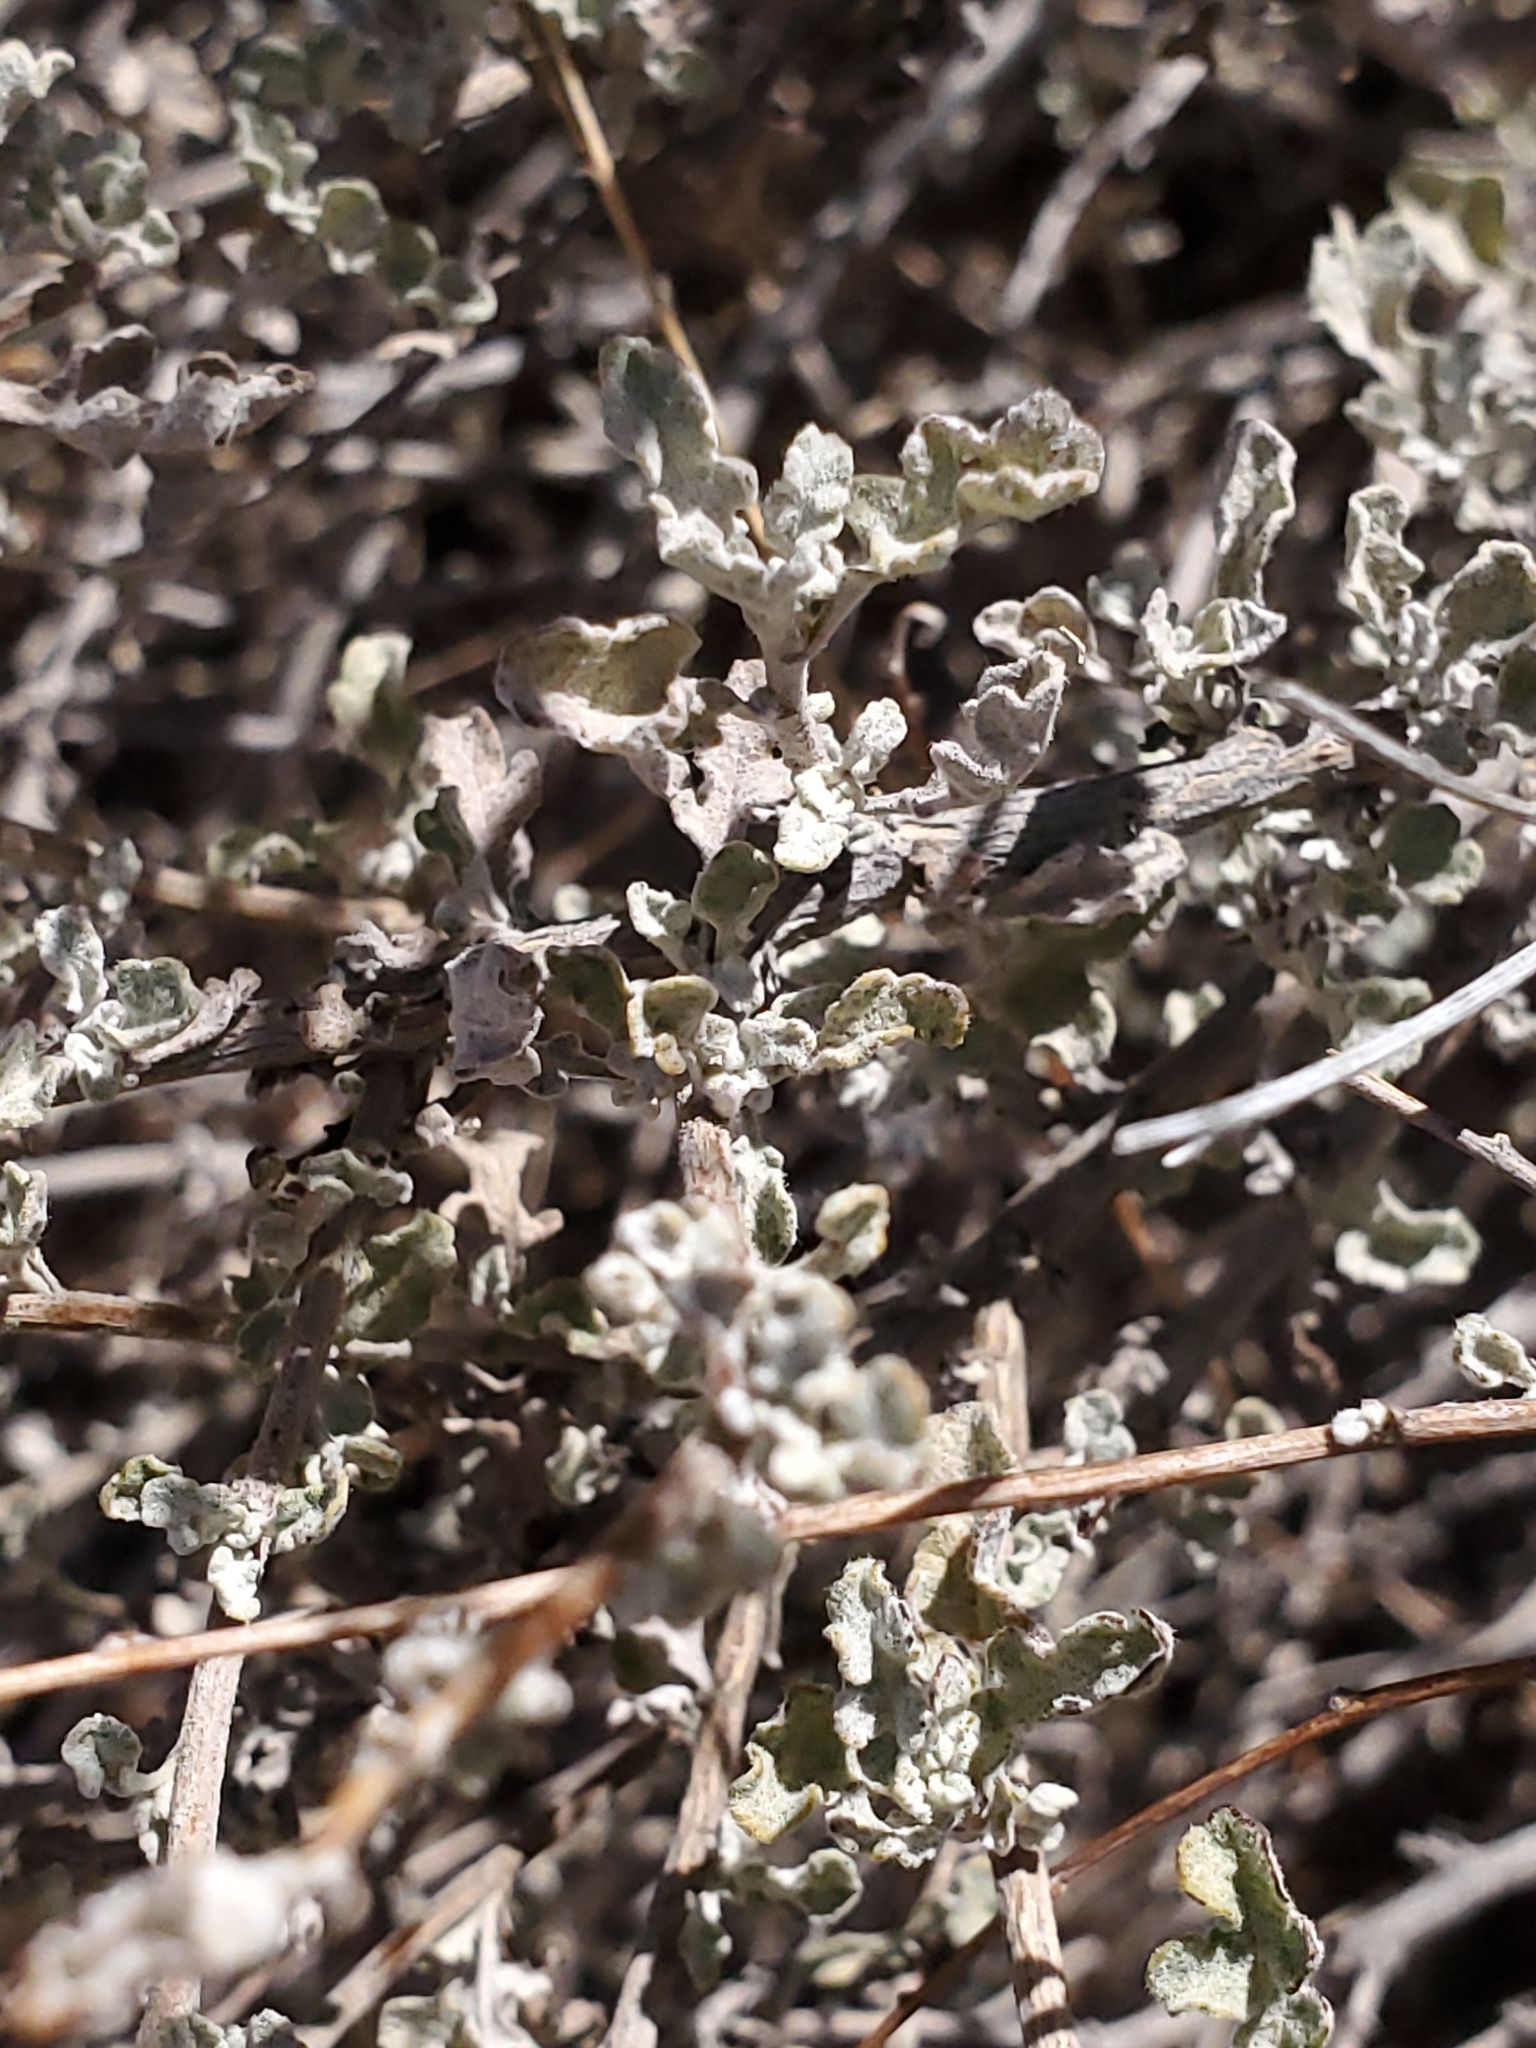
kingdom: Plantae
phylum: Tracheophyta
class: Magnoliopsida
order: Asterales
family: Asteraceae
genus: Parthenium
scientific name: Parthenium incanum
